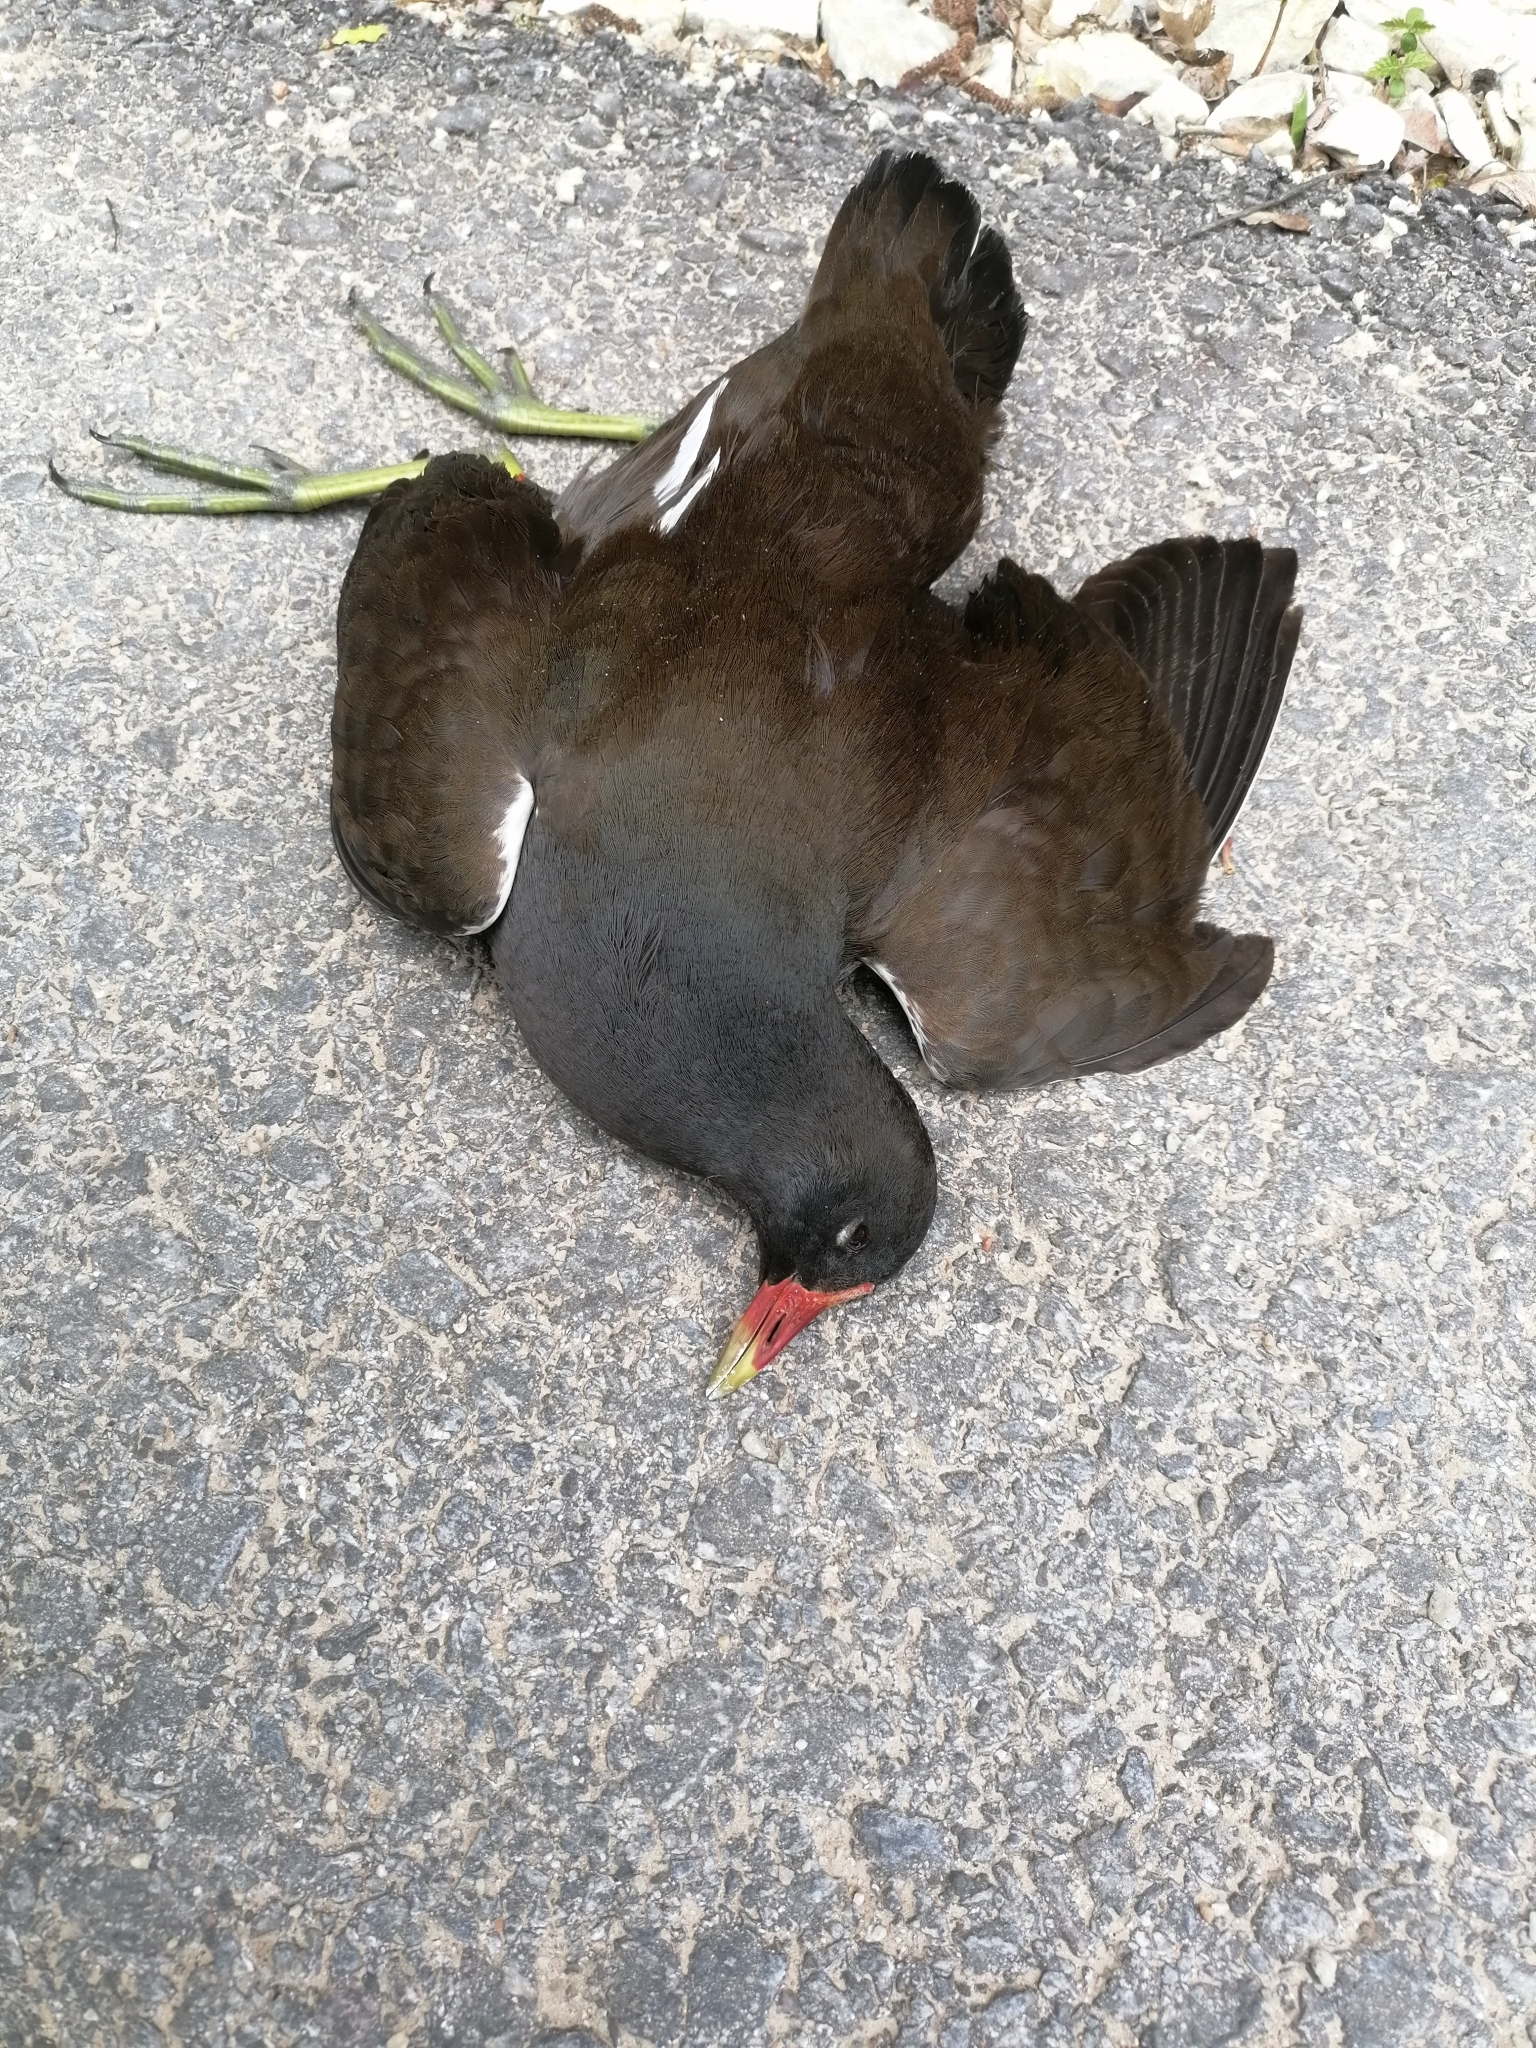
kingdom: Animalia
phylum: Chordata
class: Aves
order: Gruiformes
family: Rallidae
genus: Gallinula
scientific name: Gallinula chloropus
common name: Common moorhen
